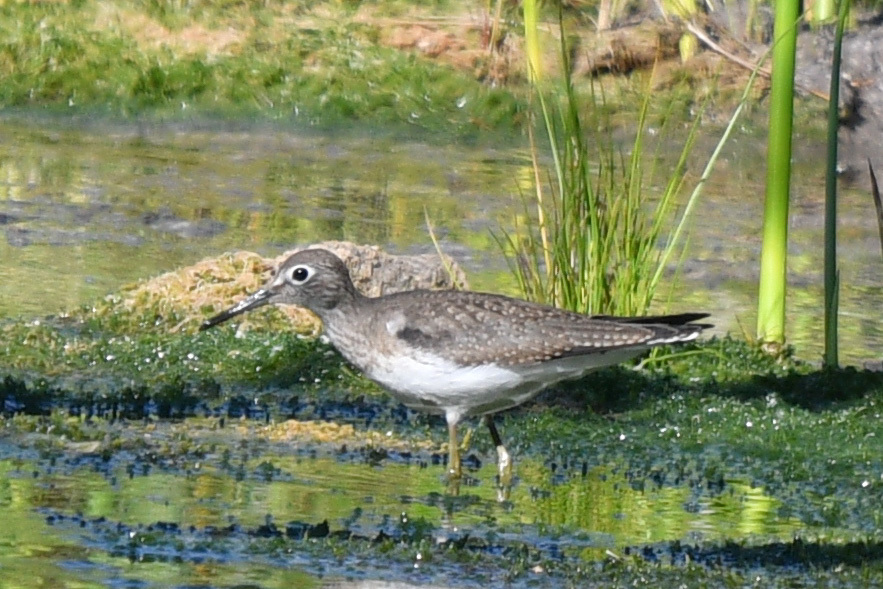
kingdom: Animalia
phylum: Chordata
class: Aves
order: Charadriiformes
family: Scolopacidae
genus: Tringa
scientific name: Tringa solitaria
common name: Solitary sandpiper
